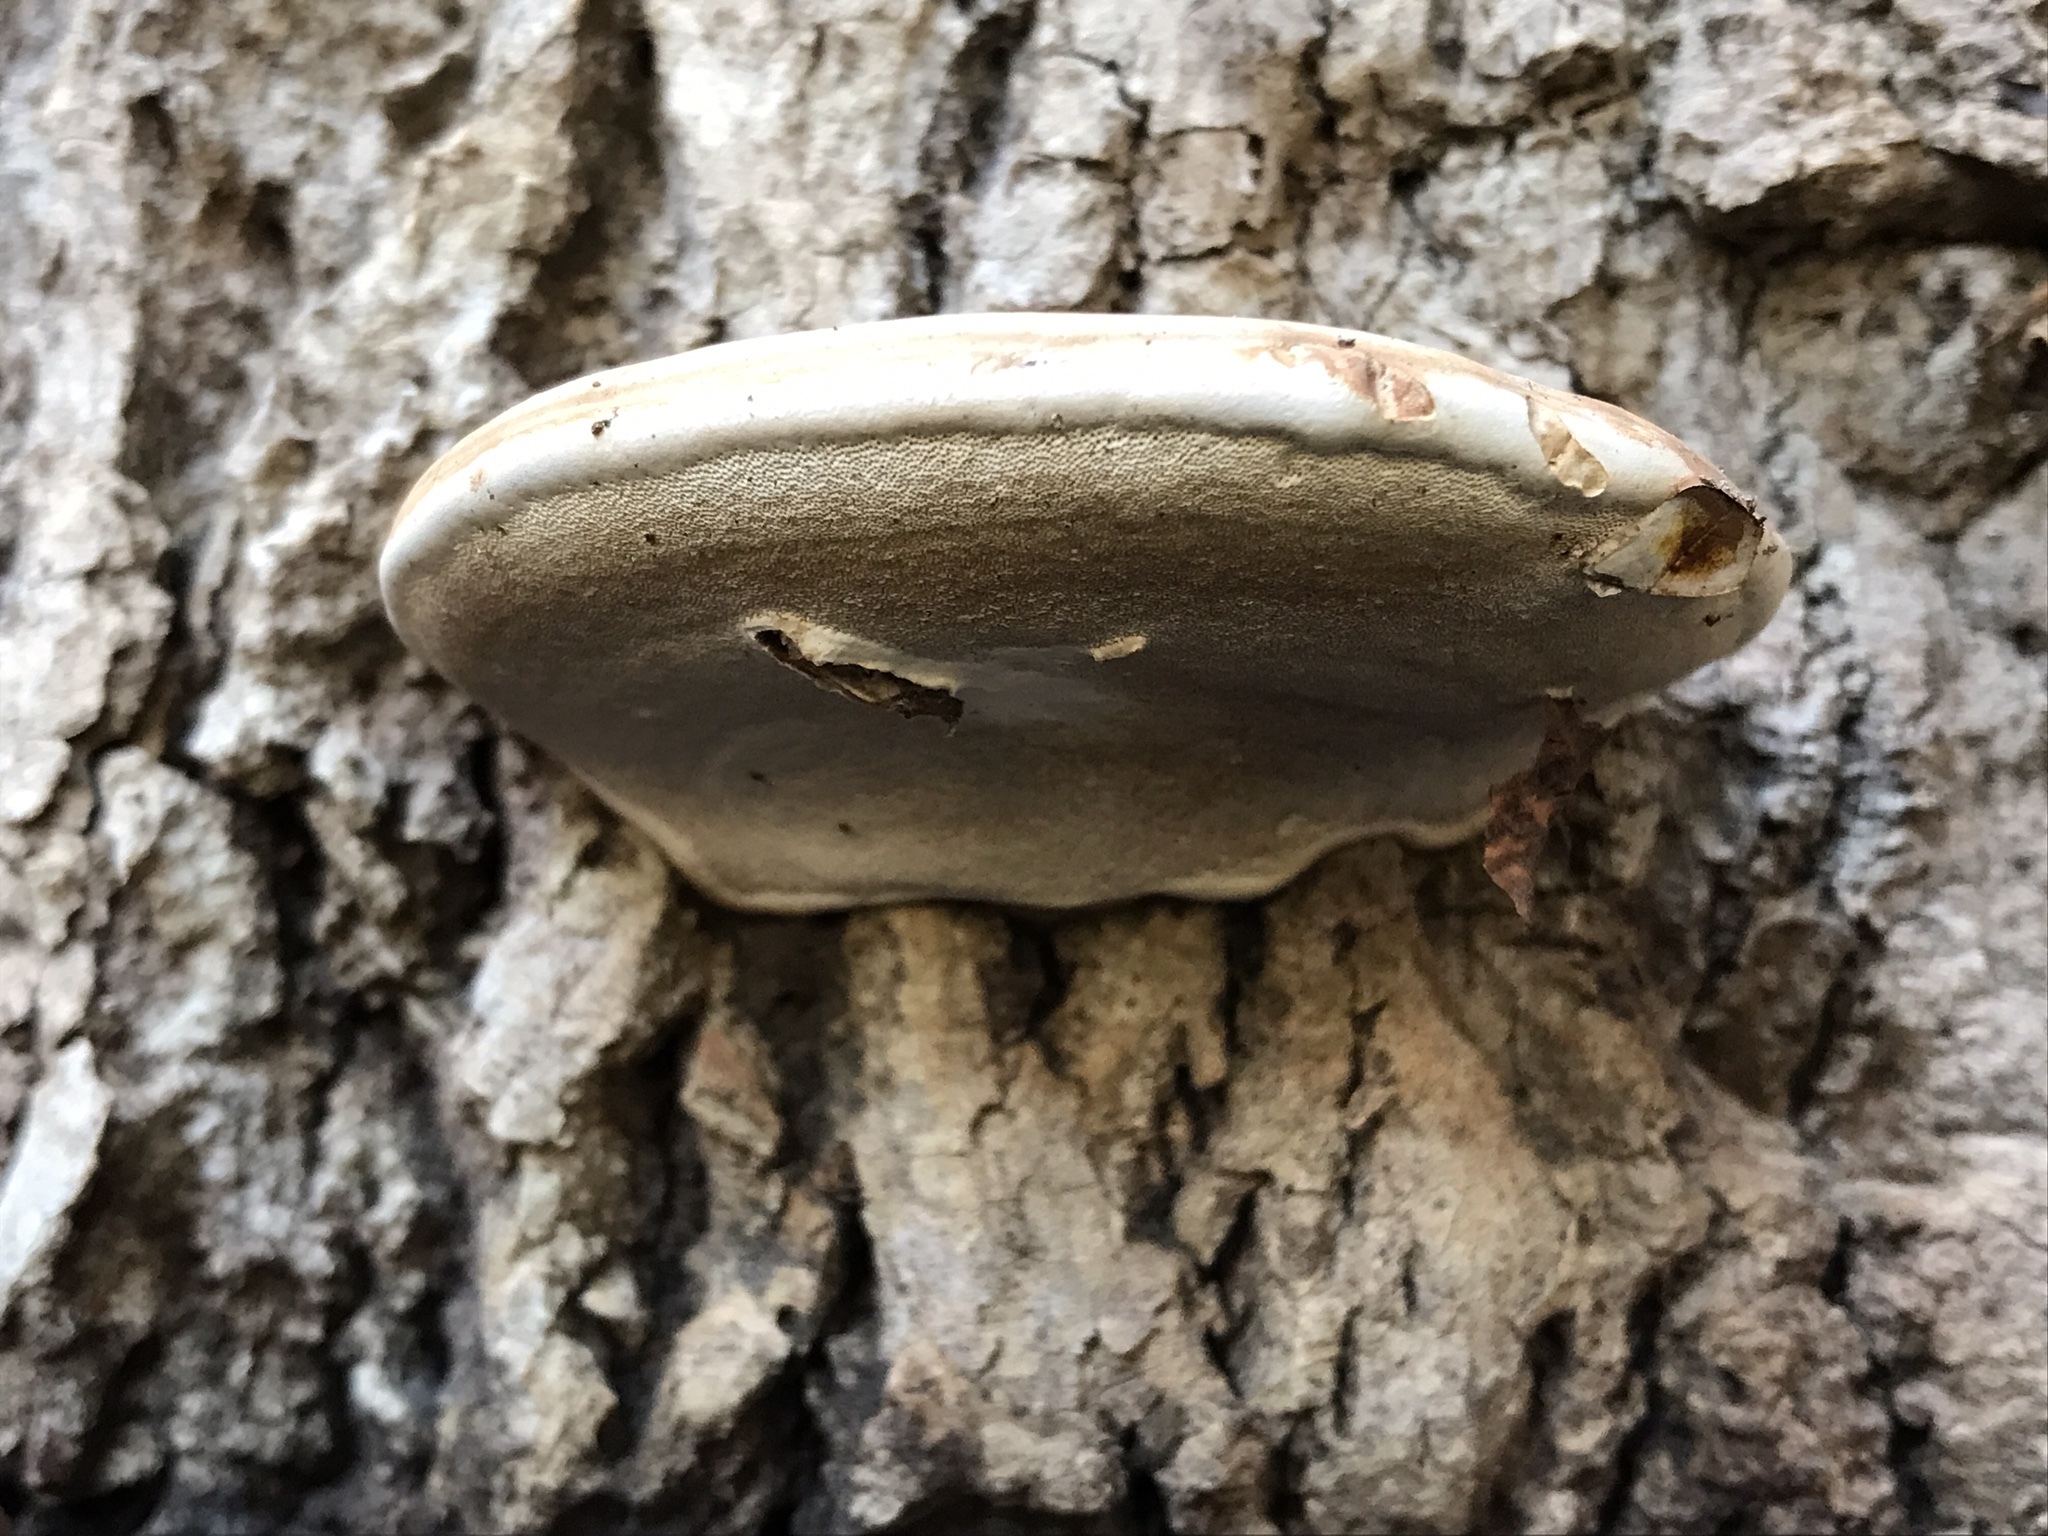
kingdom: Fungi
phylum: Basidiomycota
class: Agaricomycetes
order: Polyporales
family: Polyporaceae
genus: Ganoderma
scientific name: Ganoderma applanatum
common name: Artist's bracket
